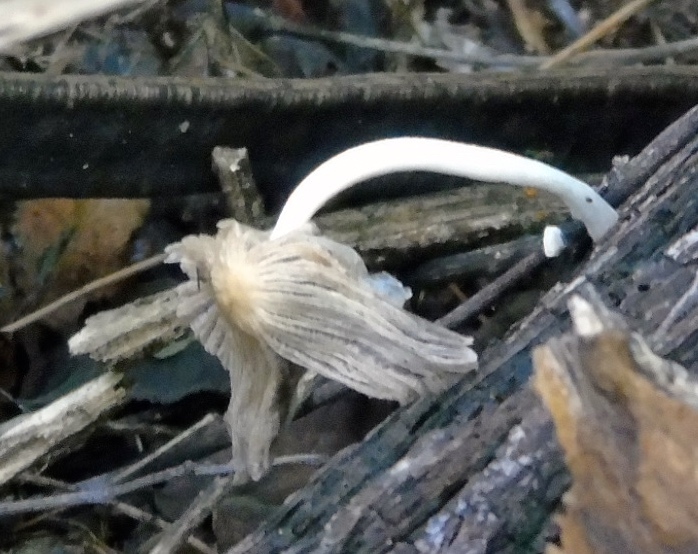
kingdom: Fungi
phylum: Basidiomycota
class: Agaricomycetes
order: Agaricales
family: Psathyrellaceae
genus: Coprinopsis
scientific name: Coprinopsis
